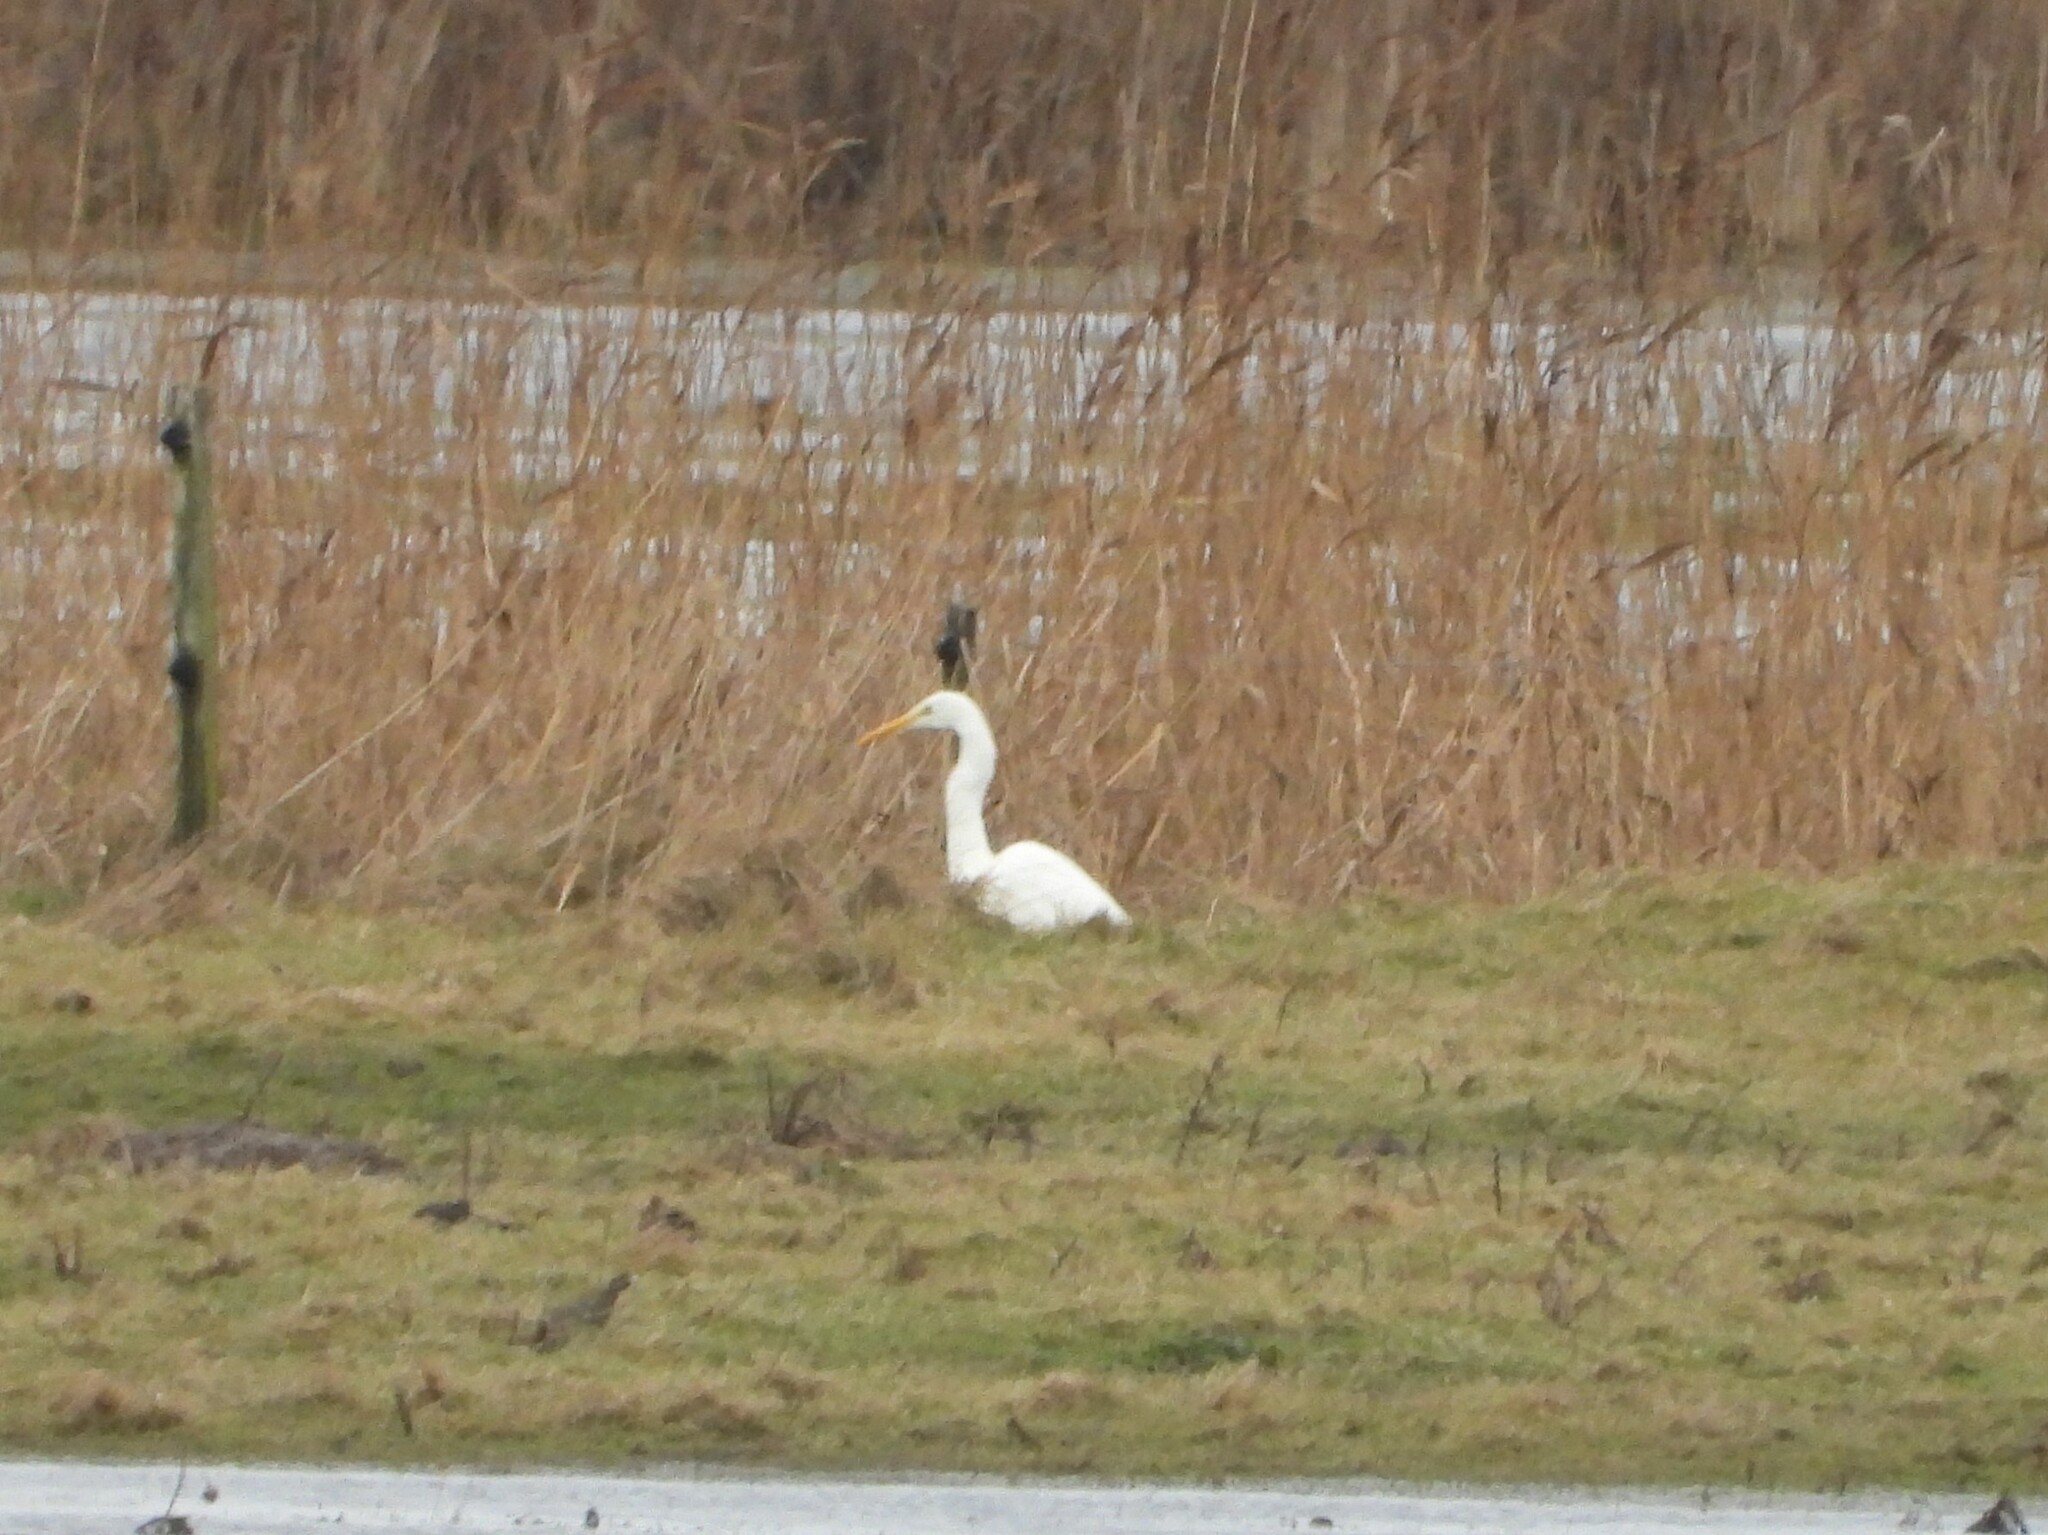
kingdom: Animalia
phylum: Chordata
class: Aves
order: Pelecaniformes
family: Ardeidae
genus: Ardea
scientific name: Ardea alba
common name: Great egret
